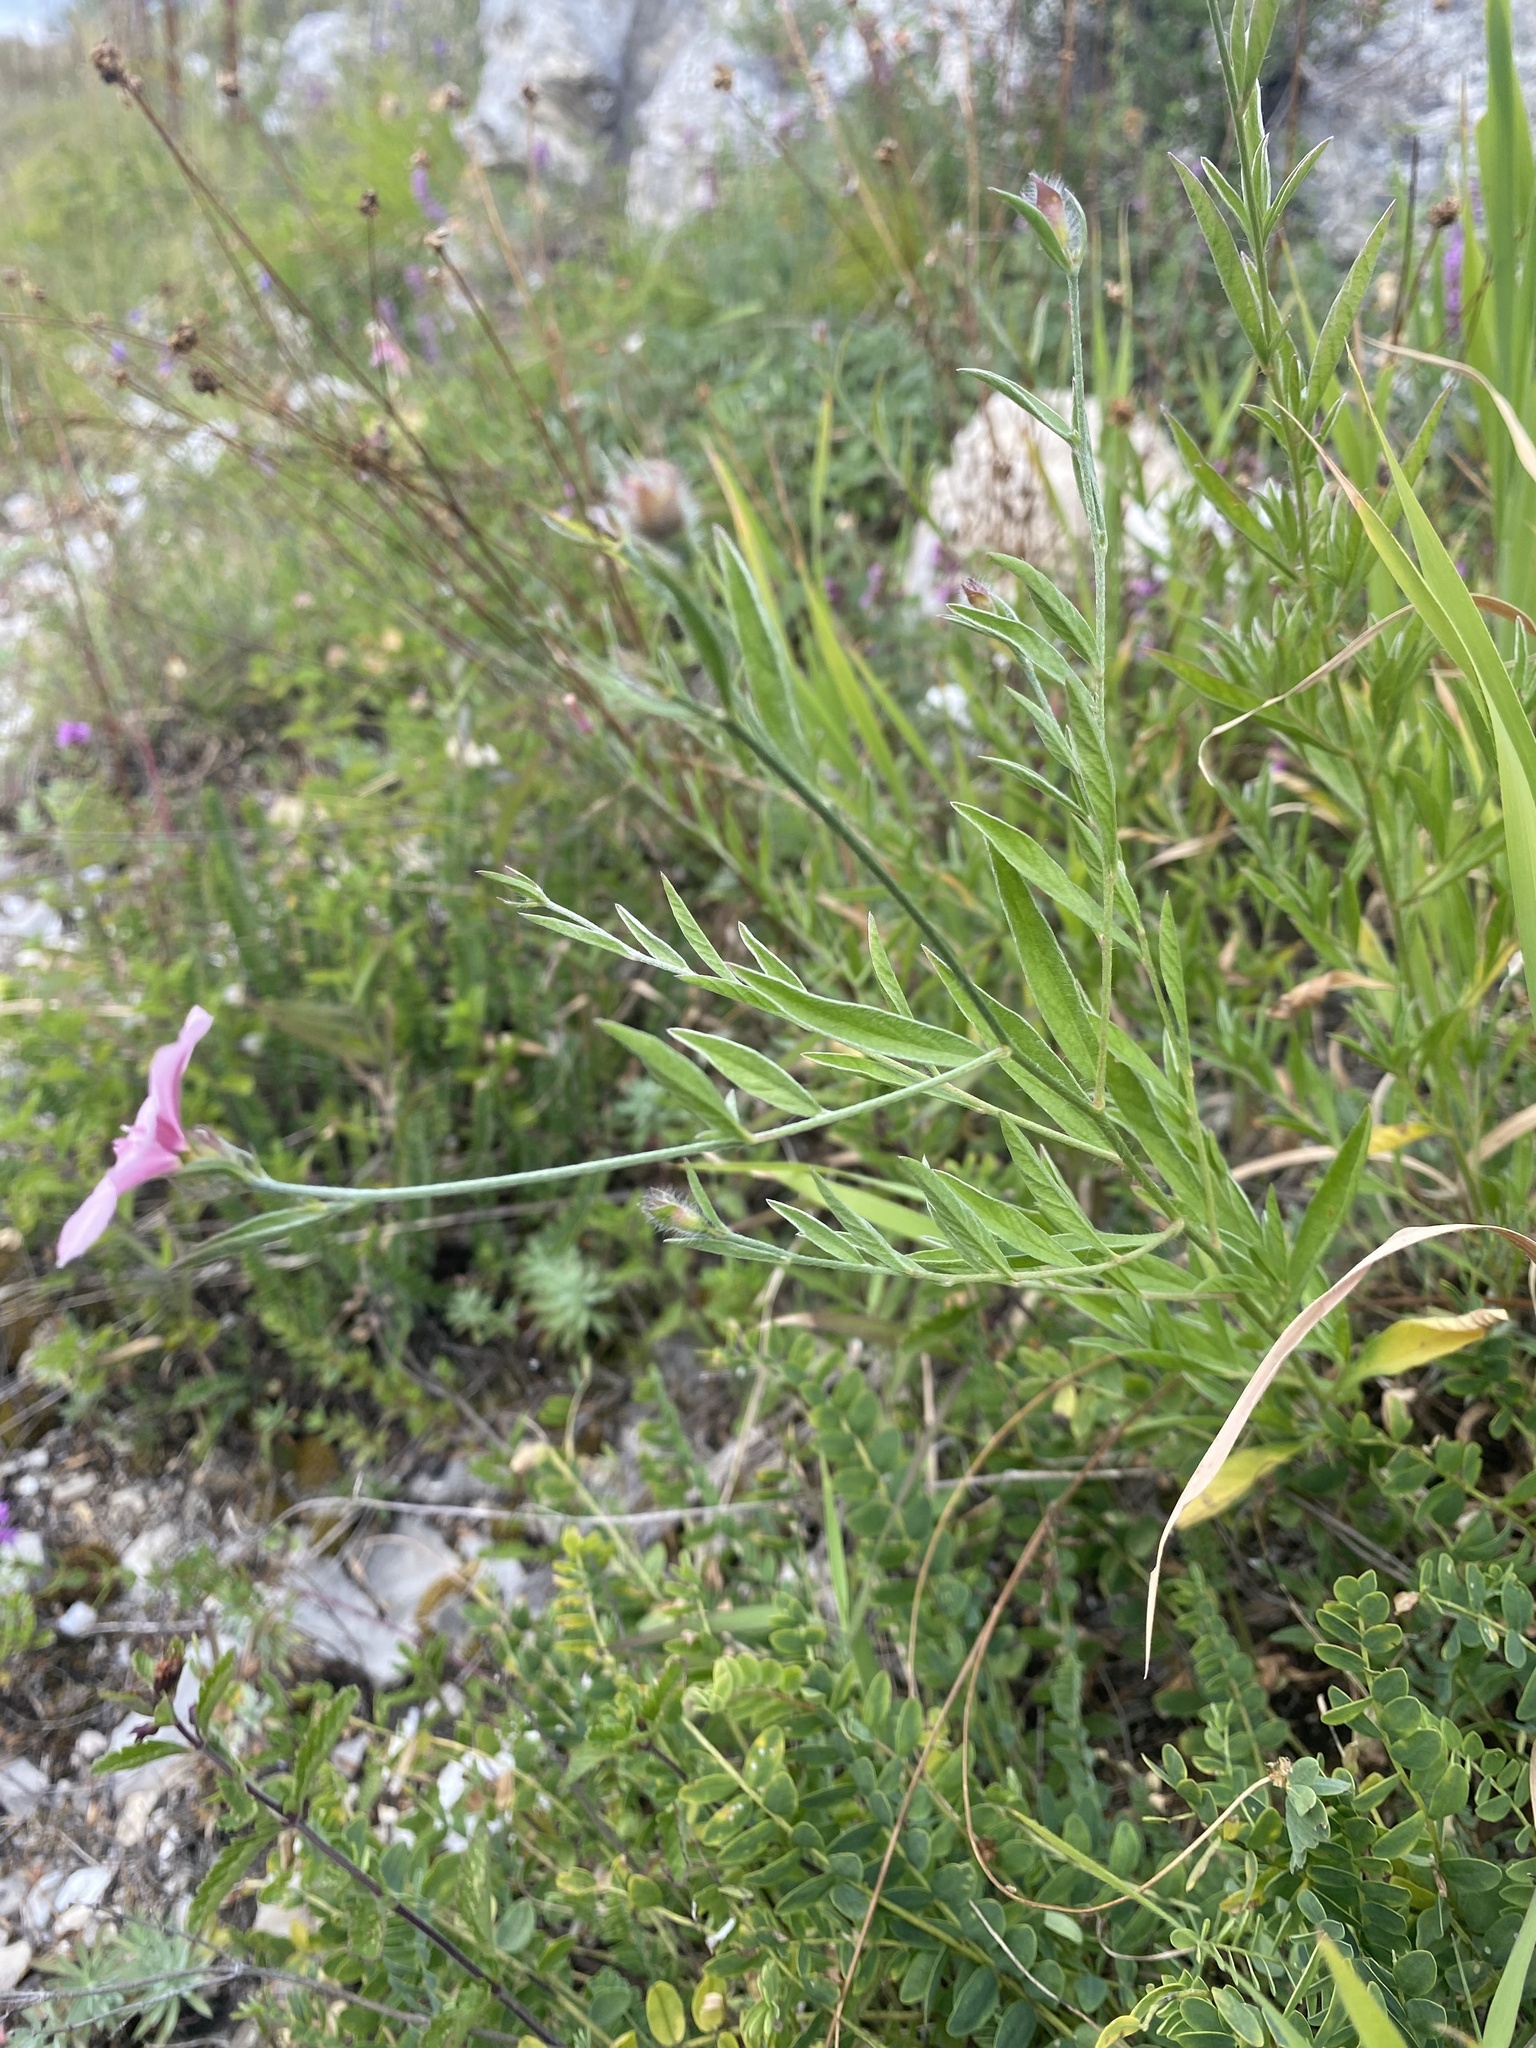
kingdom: Plantae
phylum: Tracheophyta
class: Magnoliopsida
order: Solanales
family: Convolvulaceae
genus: Convolvulus
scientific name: Convolvulus cantabrica
